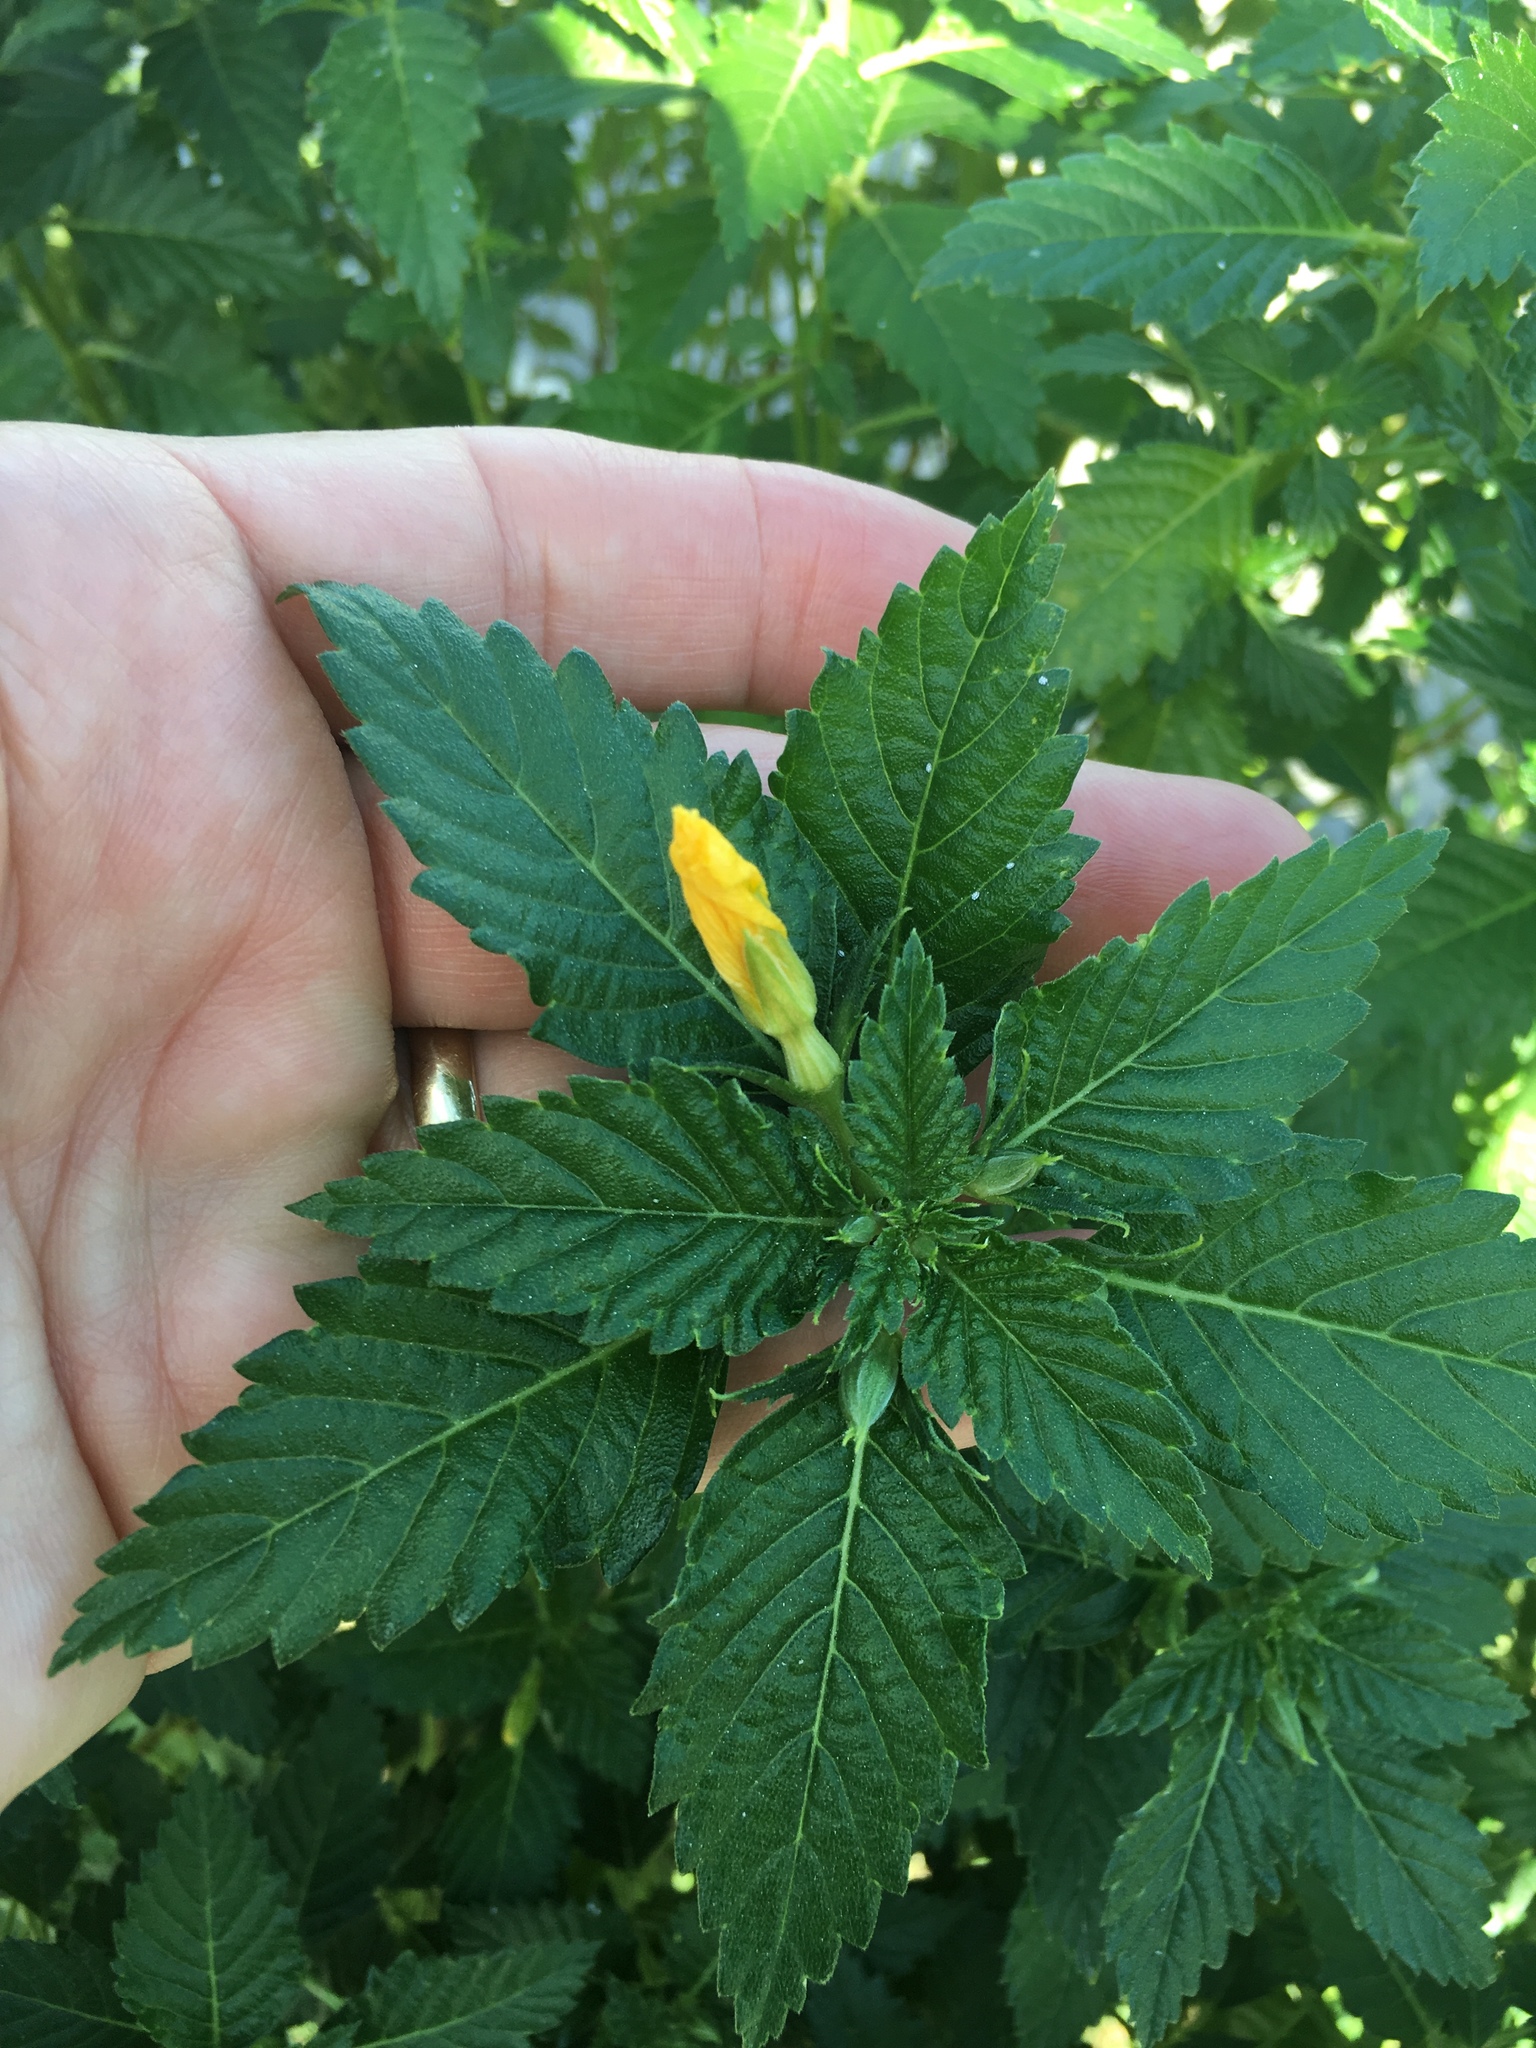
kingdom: Plantae
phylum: Tracheophyta
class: Magnoliopsida
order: Malpighiales
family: Turneraceae
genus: Turnera
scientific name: Turnera ulmifolia
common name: Ramgoat dashalong
